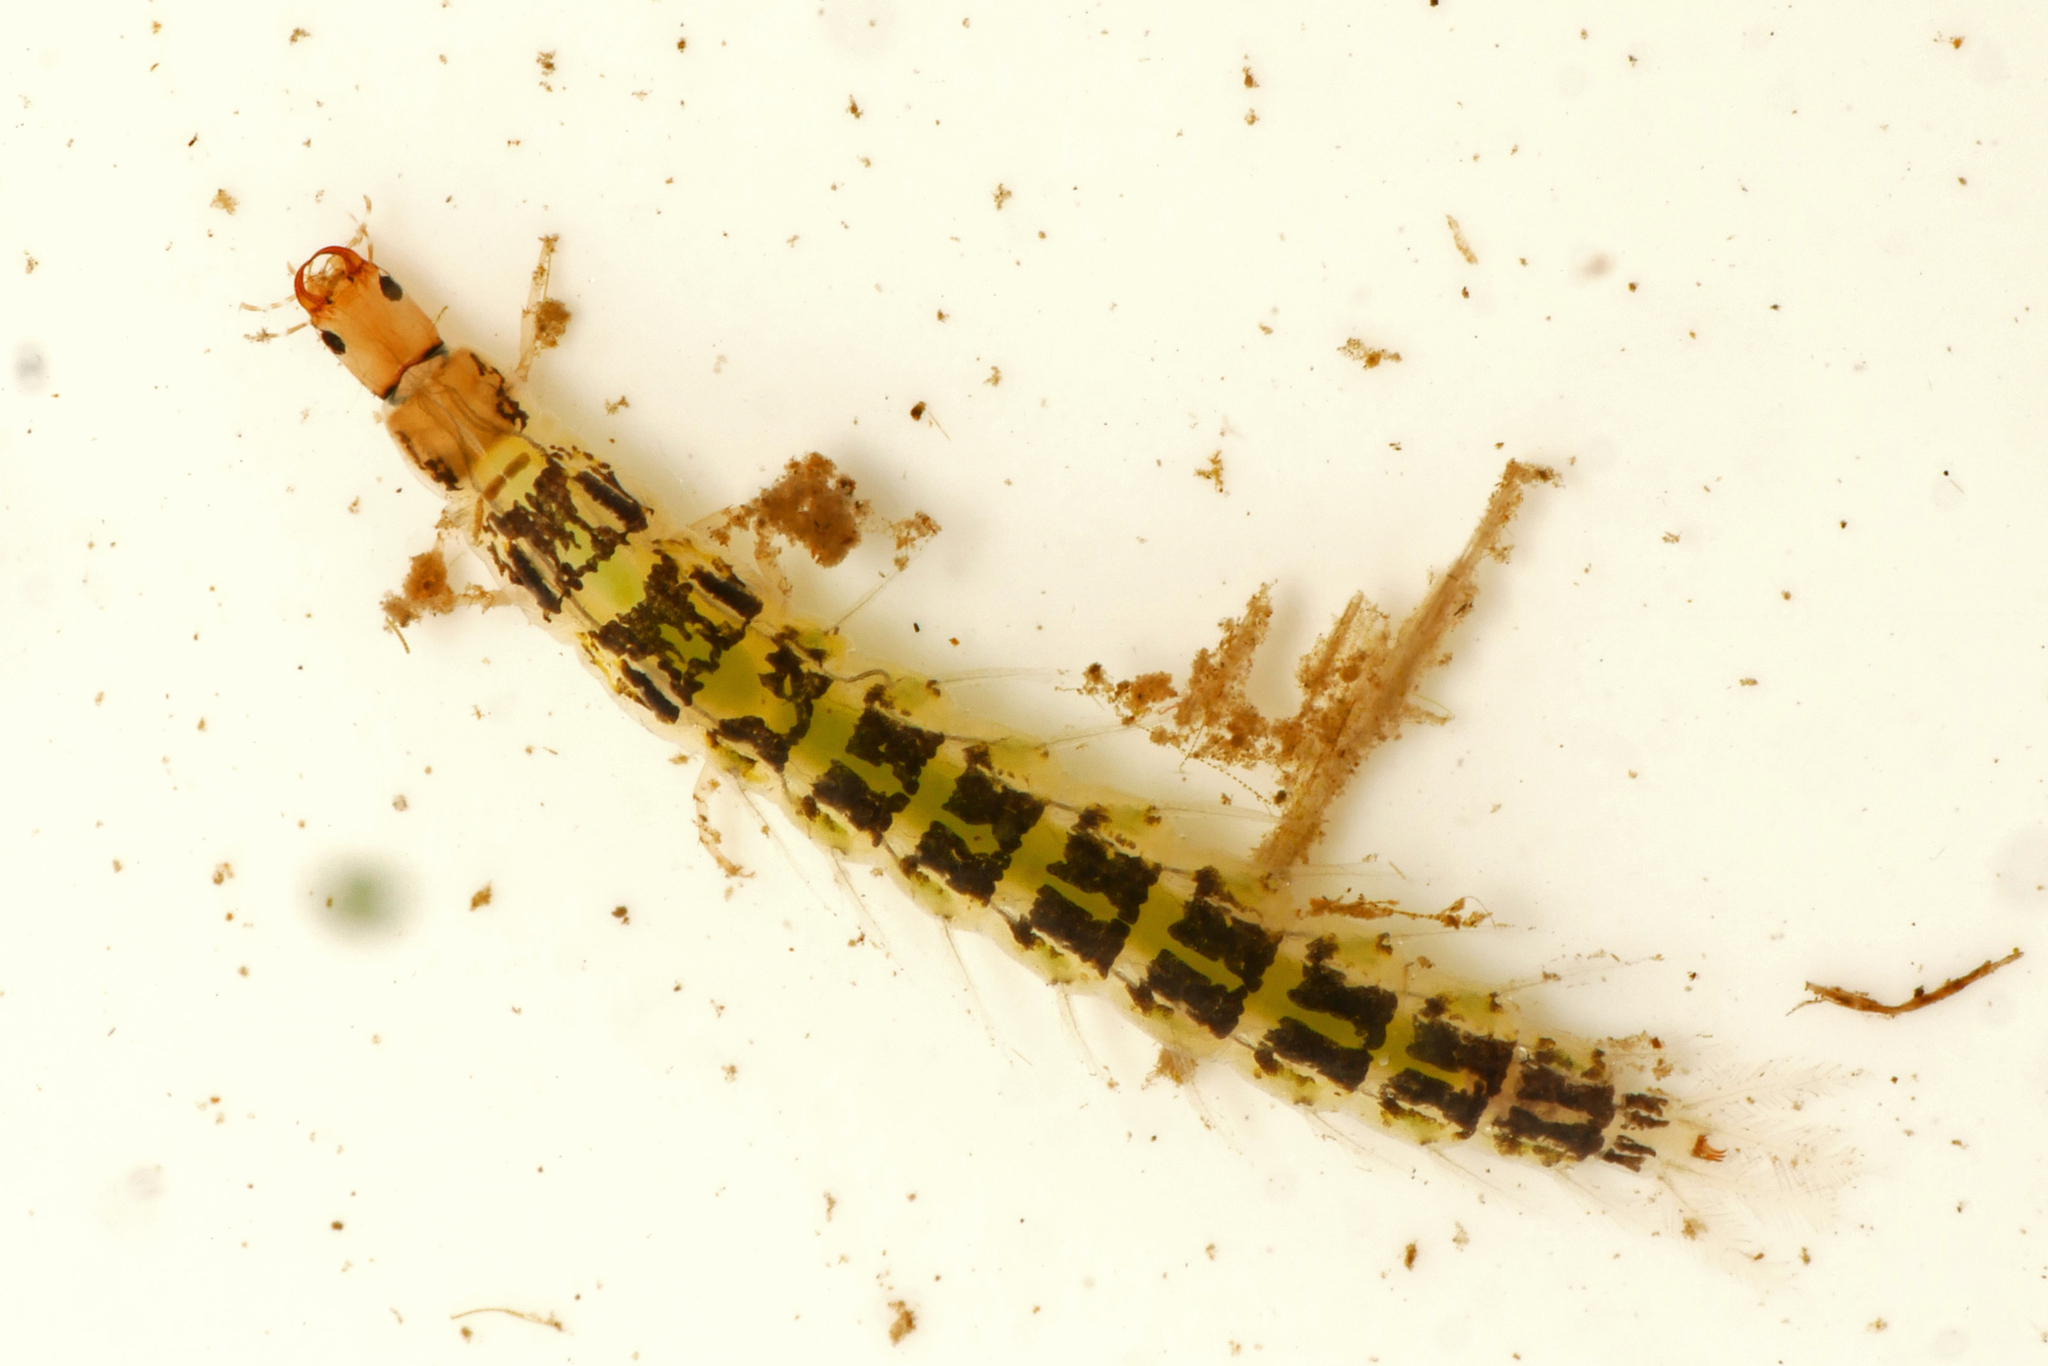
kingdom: Animalia
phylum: Arthropoda
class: Insecta
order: Coleoptera
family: Gyrinidae
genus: Orectochilus
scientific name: Orectochilus villosus
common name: Hairy whirligig beetle
